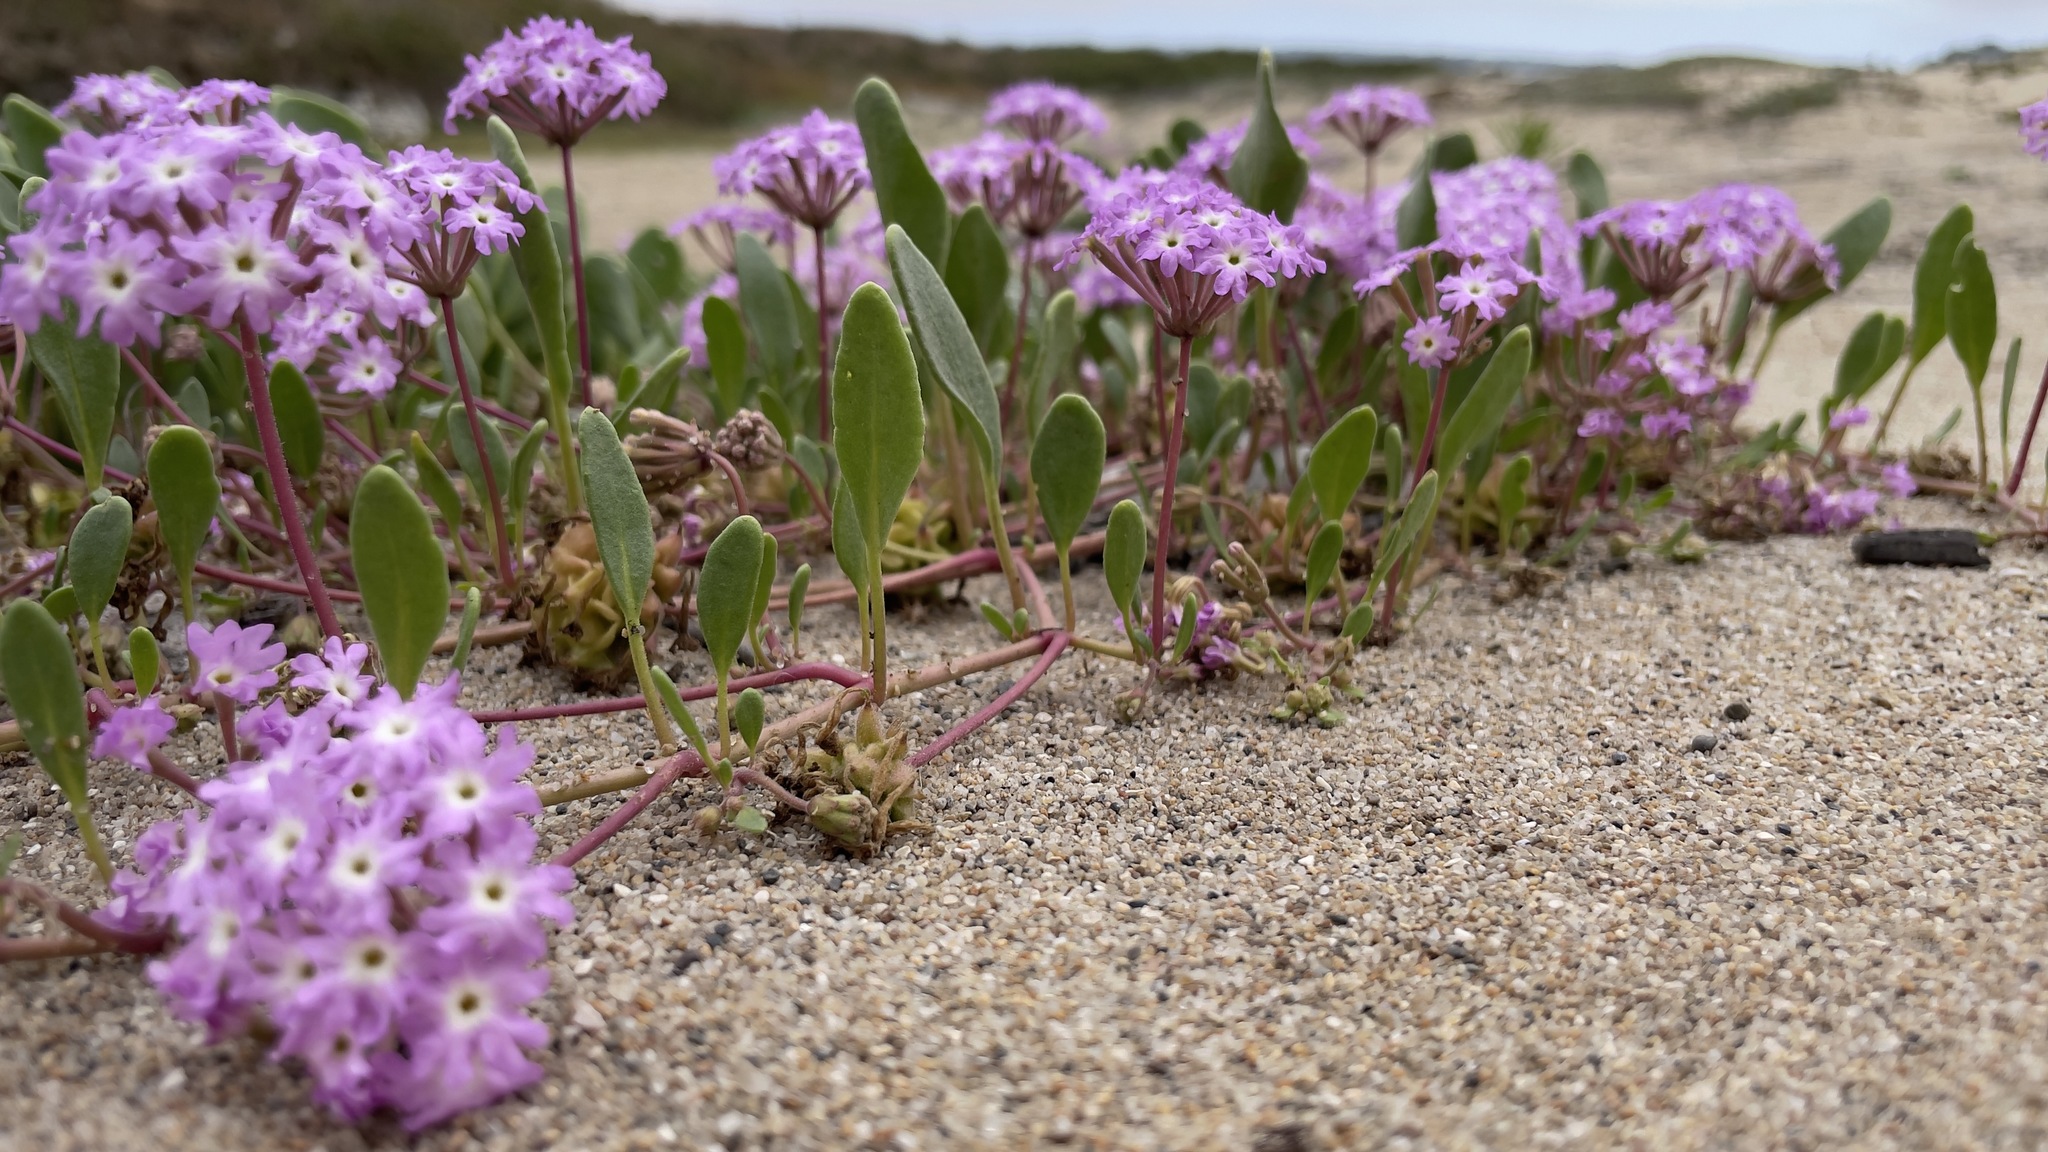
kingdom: Plantae
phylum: Tracheophyta
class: Magnoliopsida
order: Caryophyllales
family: Nyctaginaceae
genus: Abronia
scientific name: Abronia umbellata
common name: Sand-verbena
